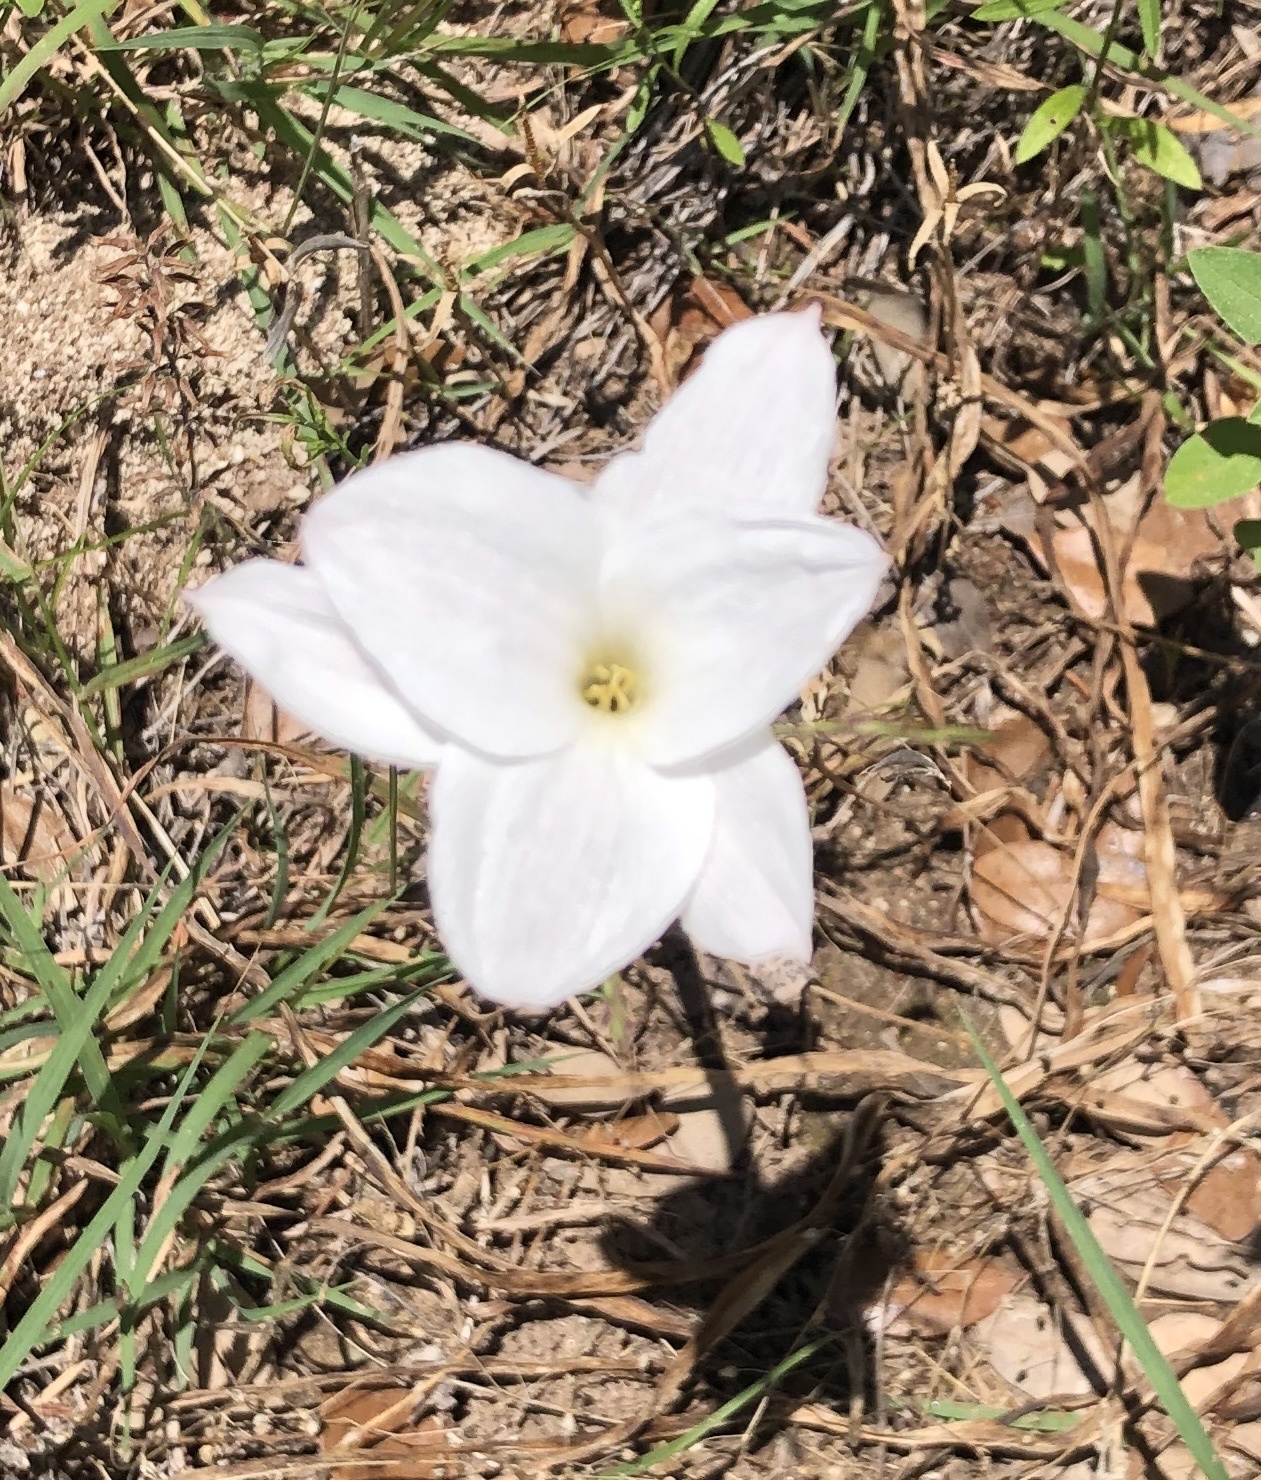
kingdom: Plantae
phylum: Tracheophyta
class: Liliopsida
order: Asparagales
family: Amaryllidaceae
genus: Zephyranthes
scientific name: Zephyranthes drummondii
